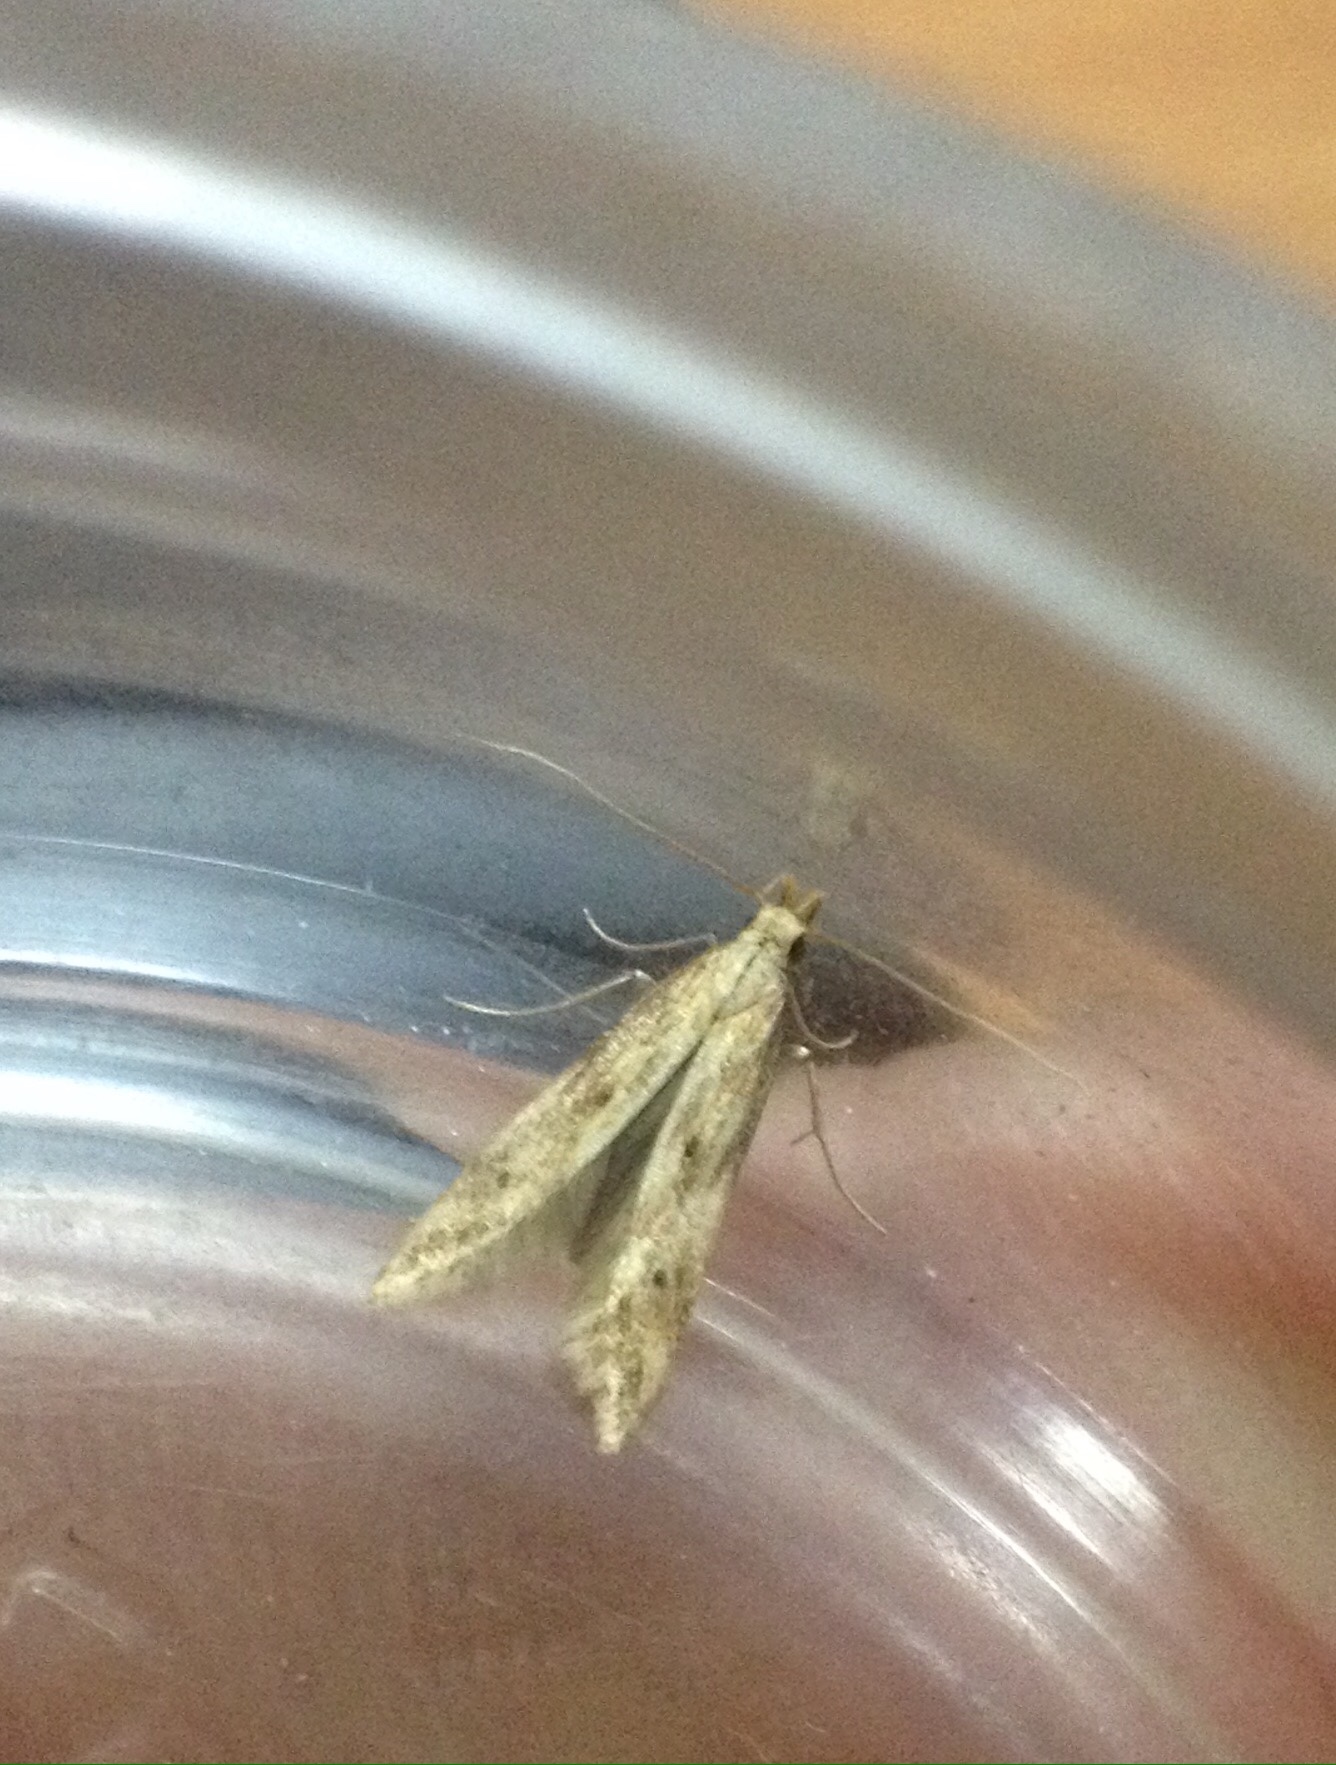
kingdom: Animalia
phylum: Arthropoda
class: Insecta
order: Lepidoptera
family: Gelechiidae
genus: Metzneria
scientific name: Metzneria lappella
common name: Burdock neb
